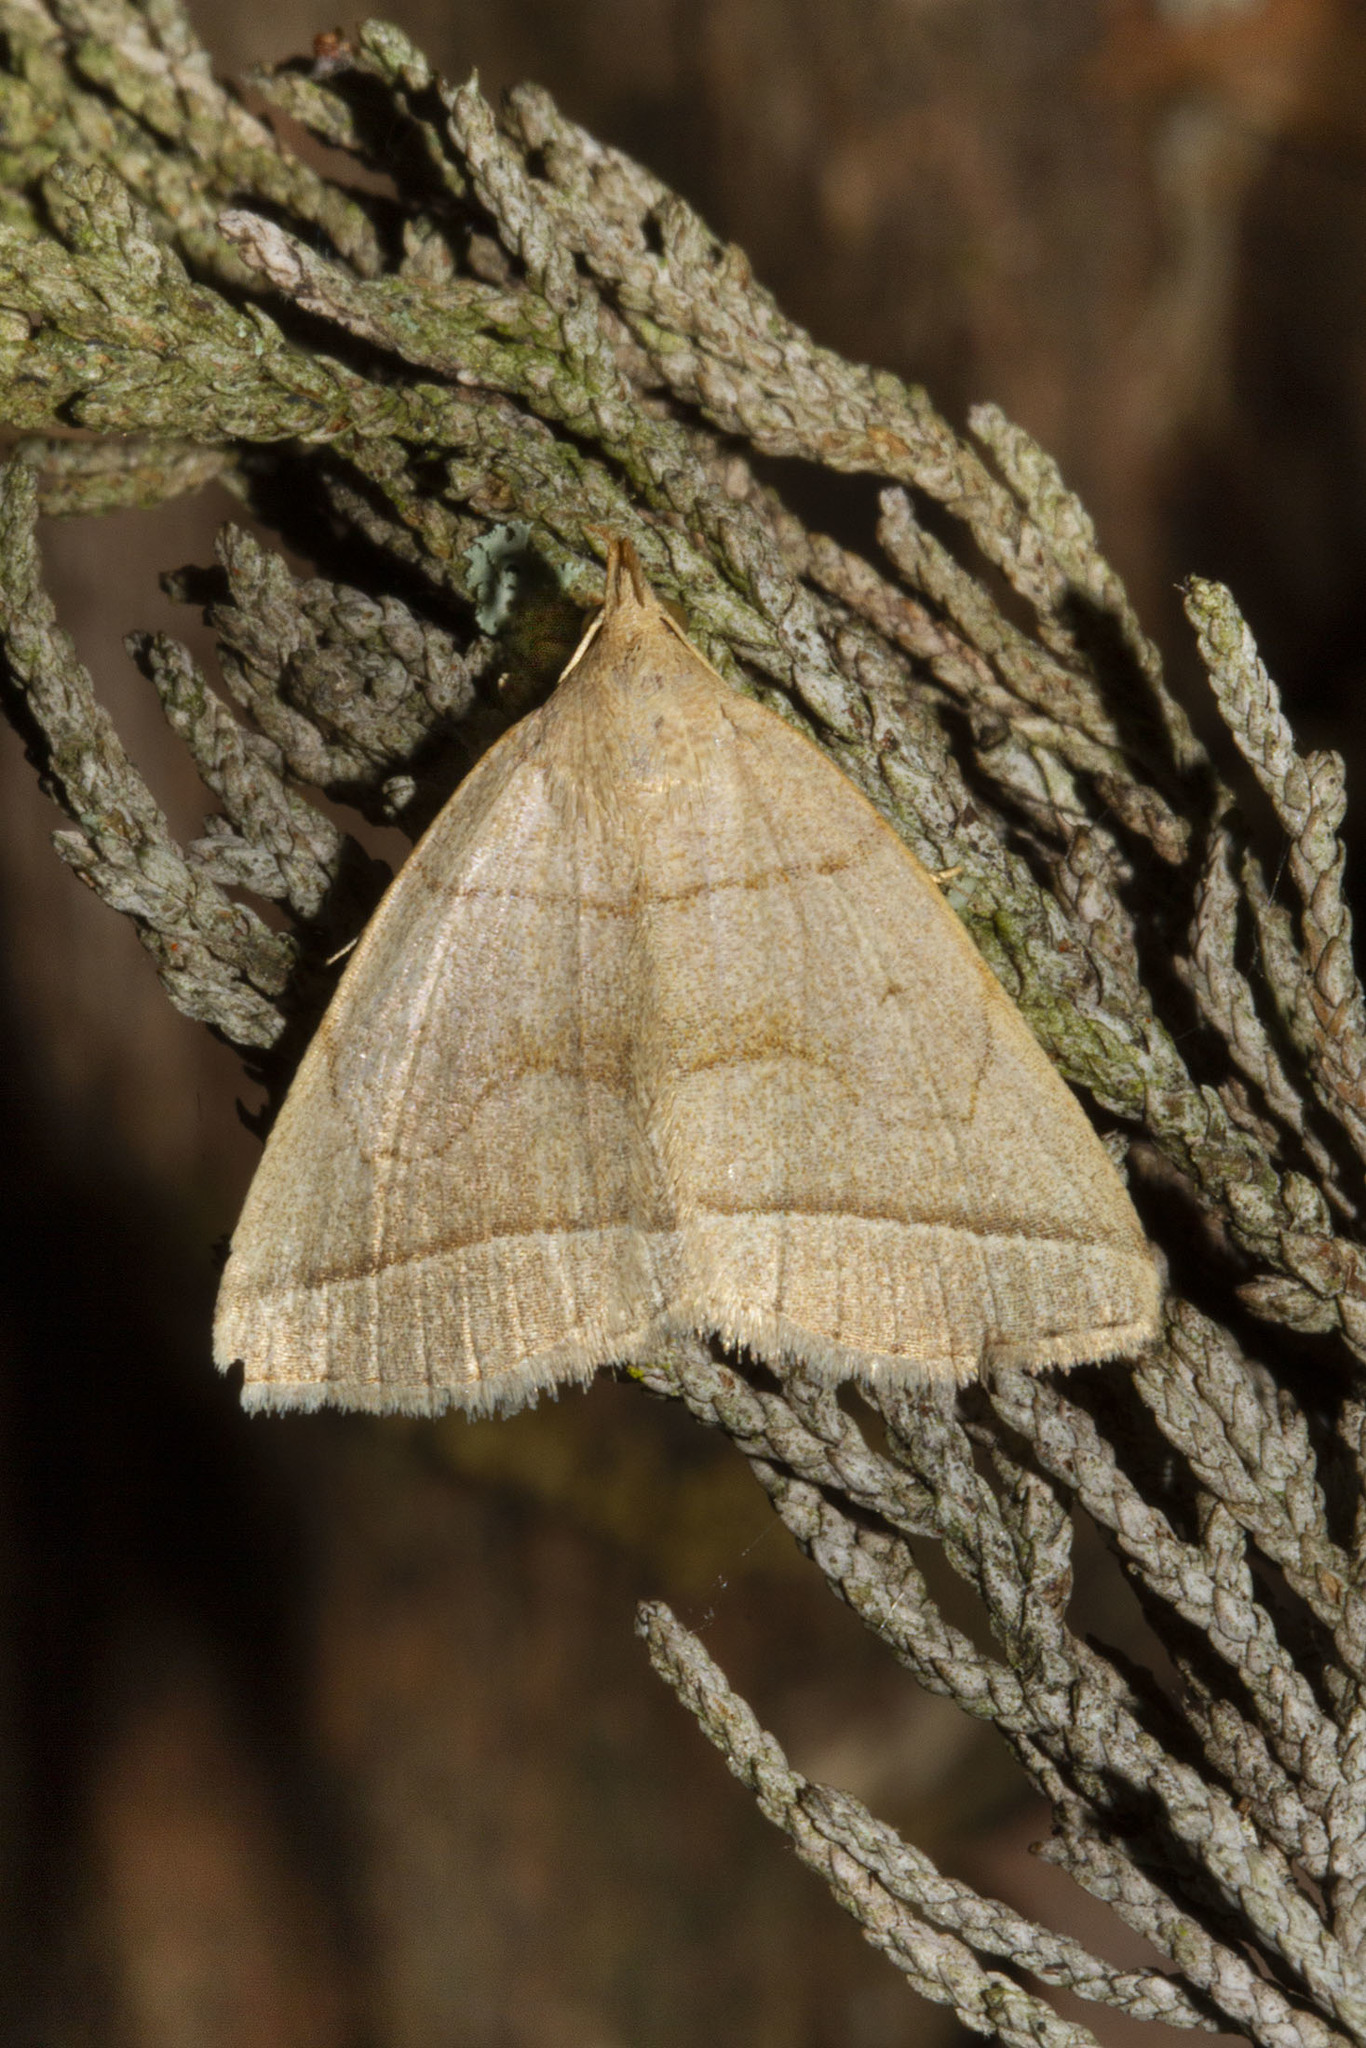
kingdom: Animalia
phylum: Arthropoda
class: Insecta
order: Lepidoptera
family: Erebidae
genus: Zanclognatha
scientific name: Zanclognatha cruralis
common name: Early fan-foot
